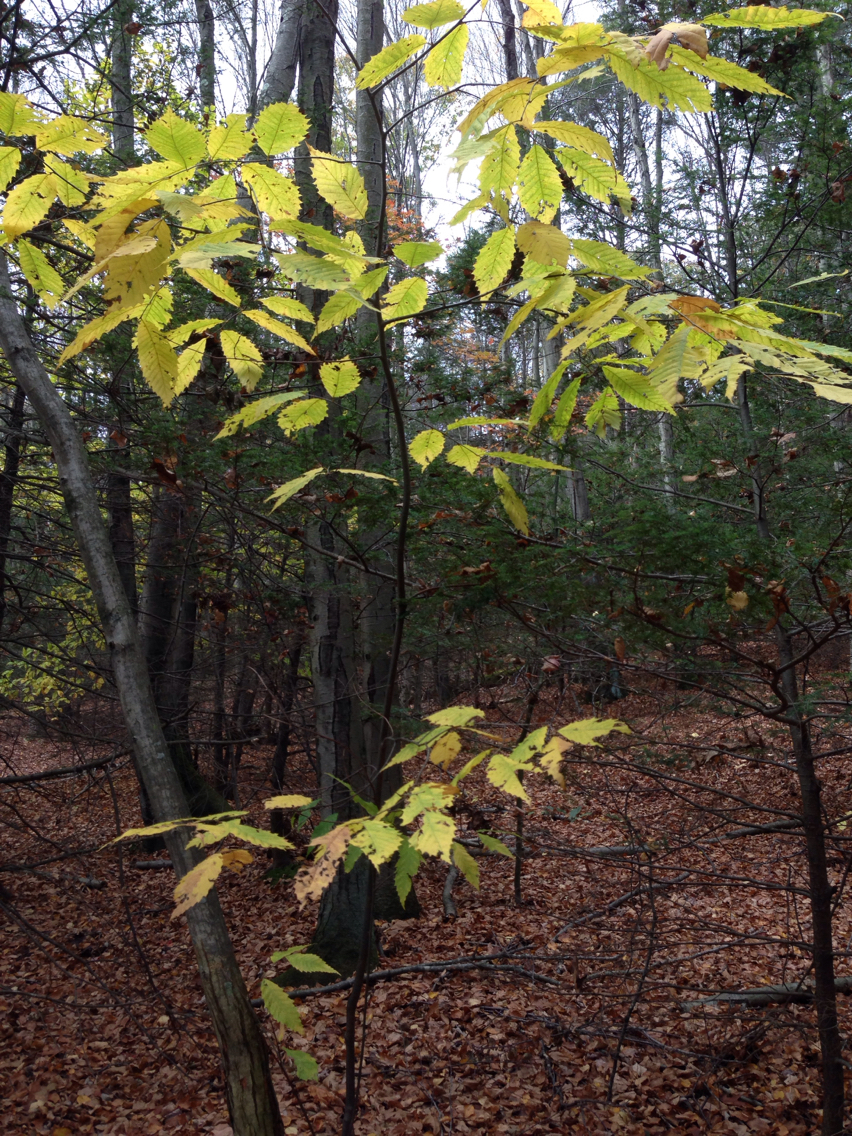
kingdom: Plantae
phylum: Tracheophyta
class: Magnoliopsida
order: Fagales
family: Fagaceae
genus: Castanea
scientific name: Castanea dentata
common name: American chestnut
